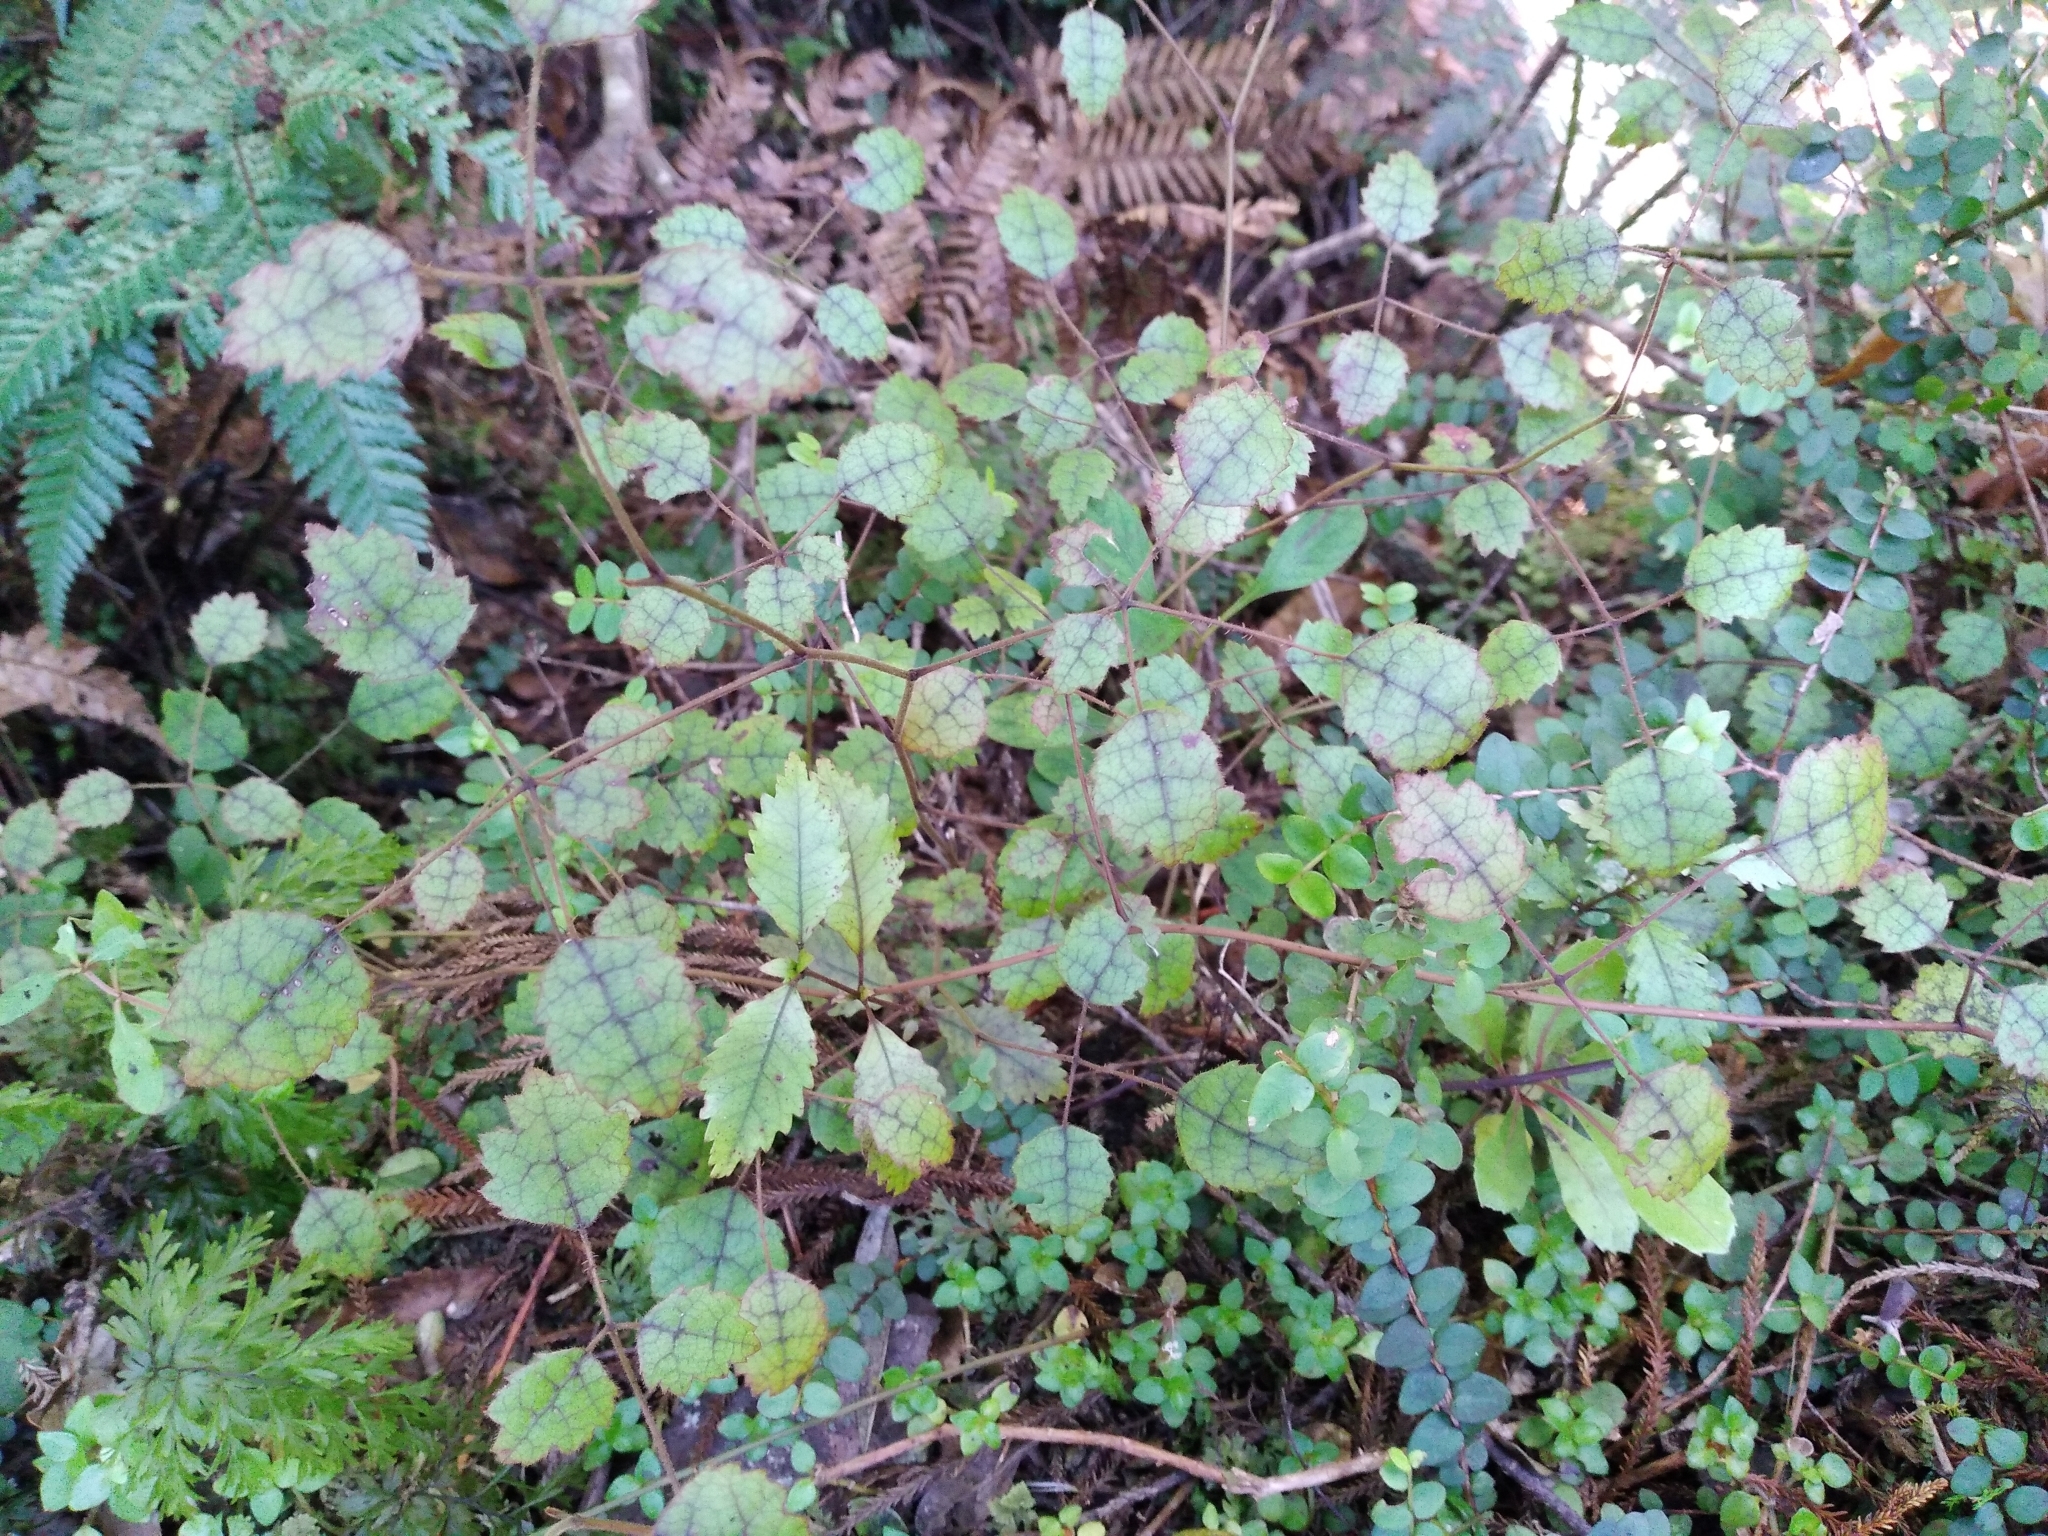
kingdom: Plantae
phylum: Tracheophyta
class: Magnoliopsida
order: Rosales
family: Rosaceae
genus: Rubus
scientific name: Rubus australis
